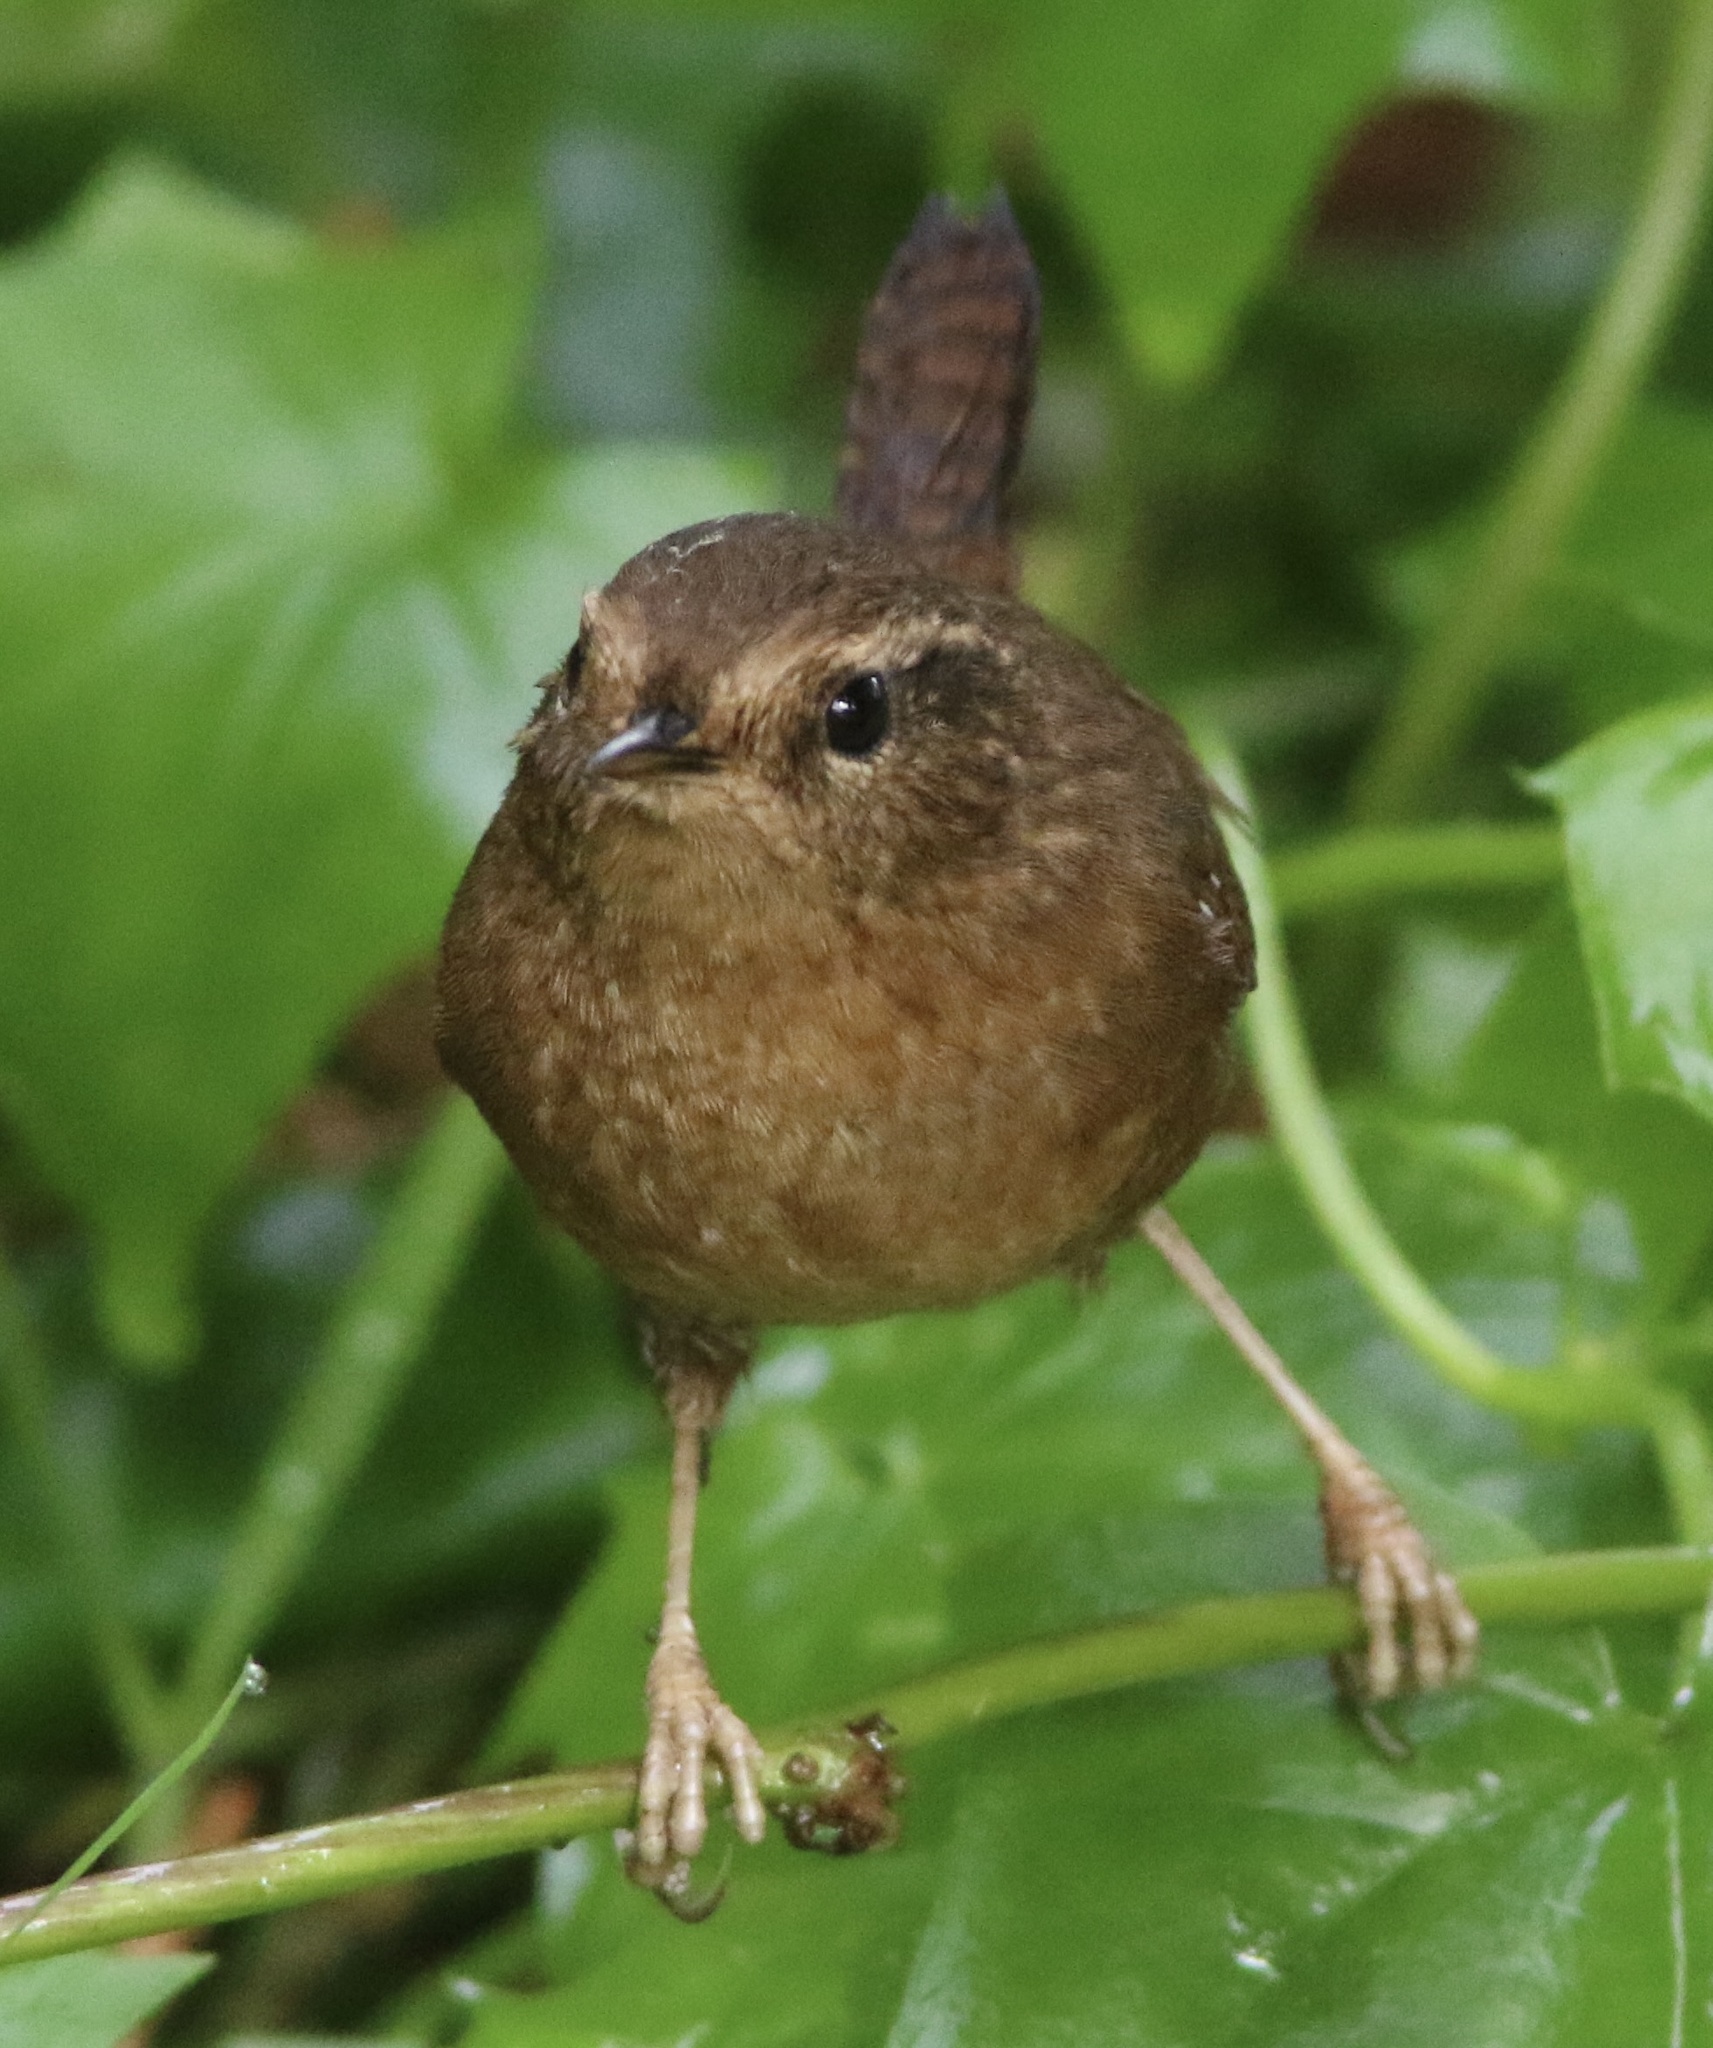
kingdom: Animalia
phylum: Chordata
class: Aves
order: Passeriformes
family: Troglodytidae
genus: Troglodytes
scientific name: Troglodytes pacificus
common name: Pacific wren
